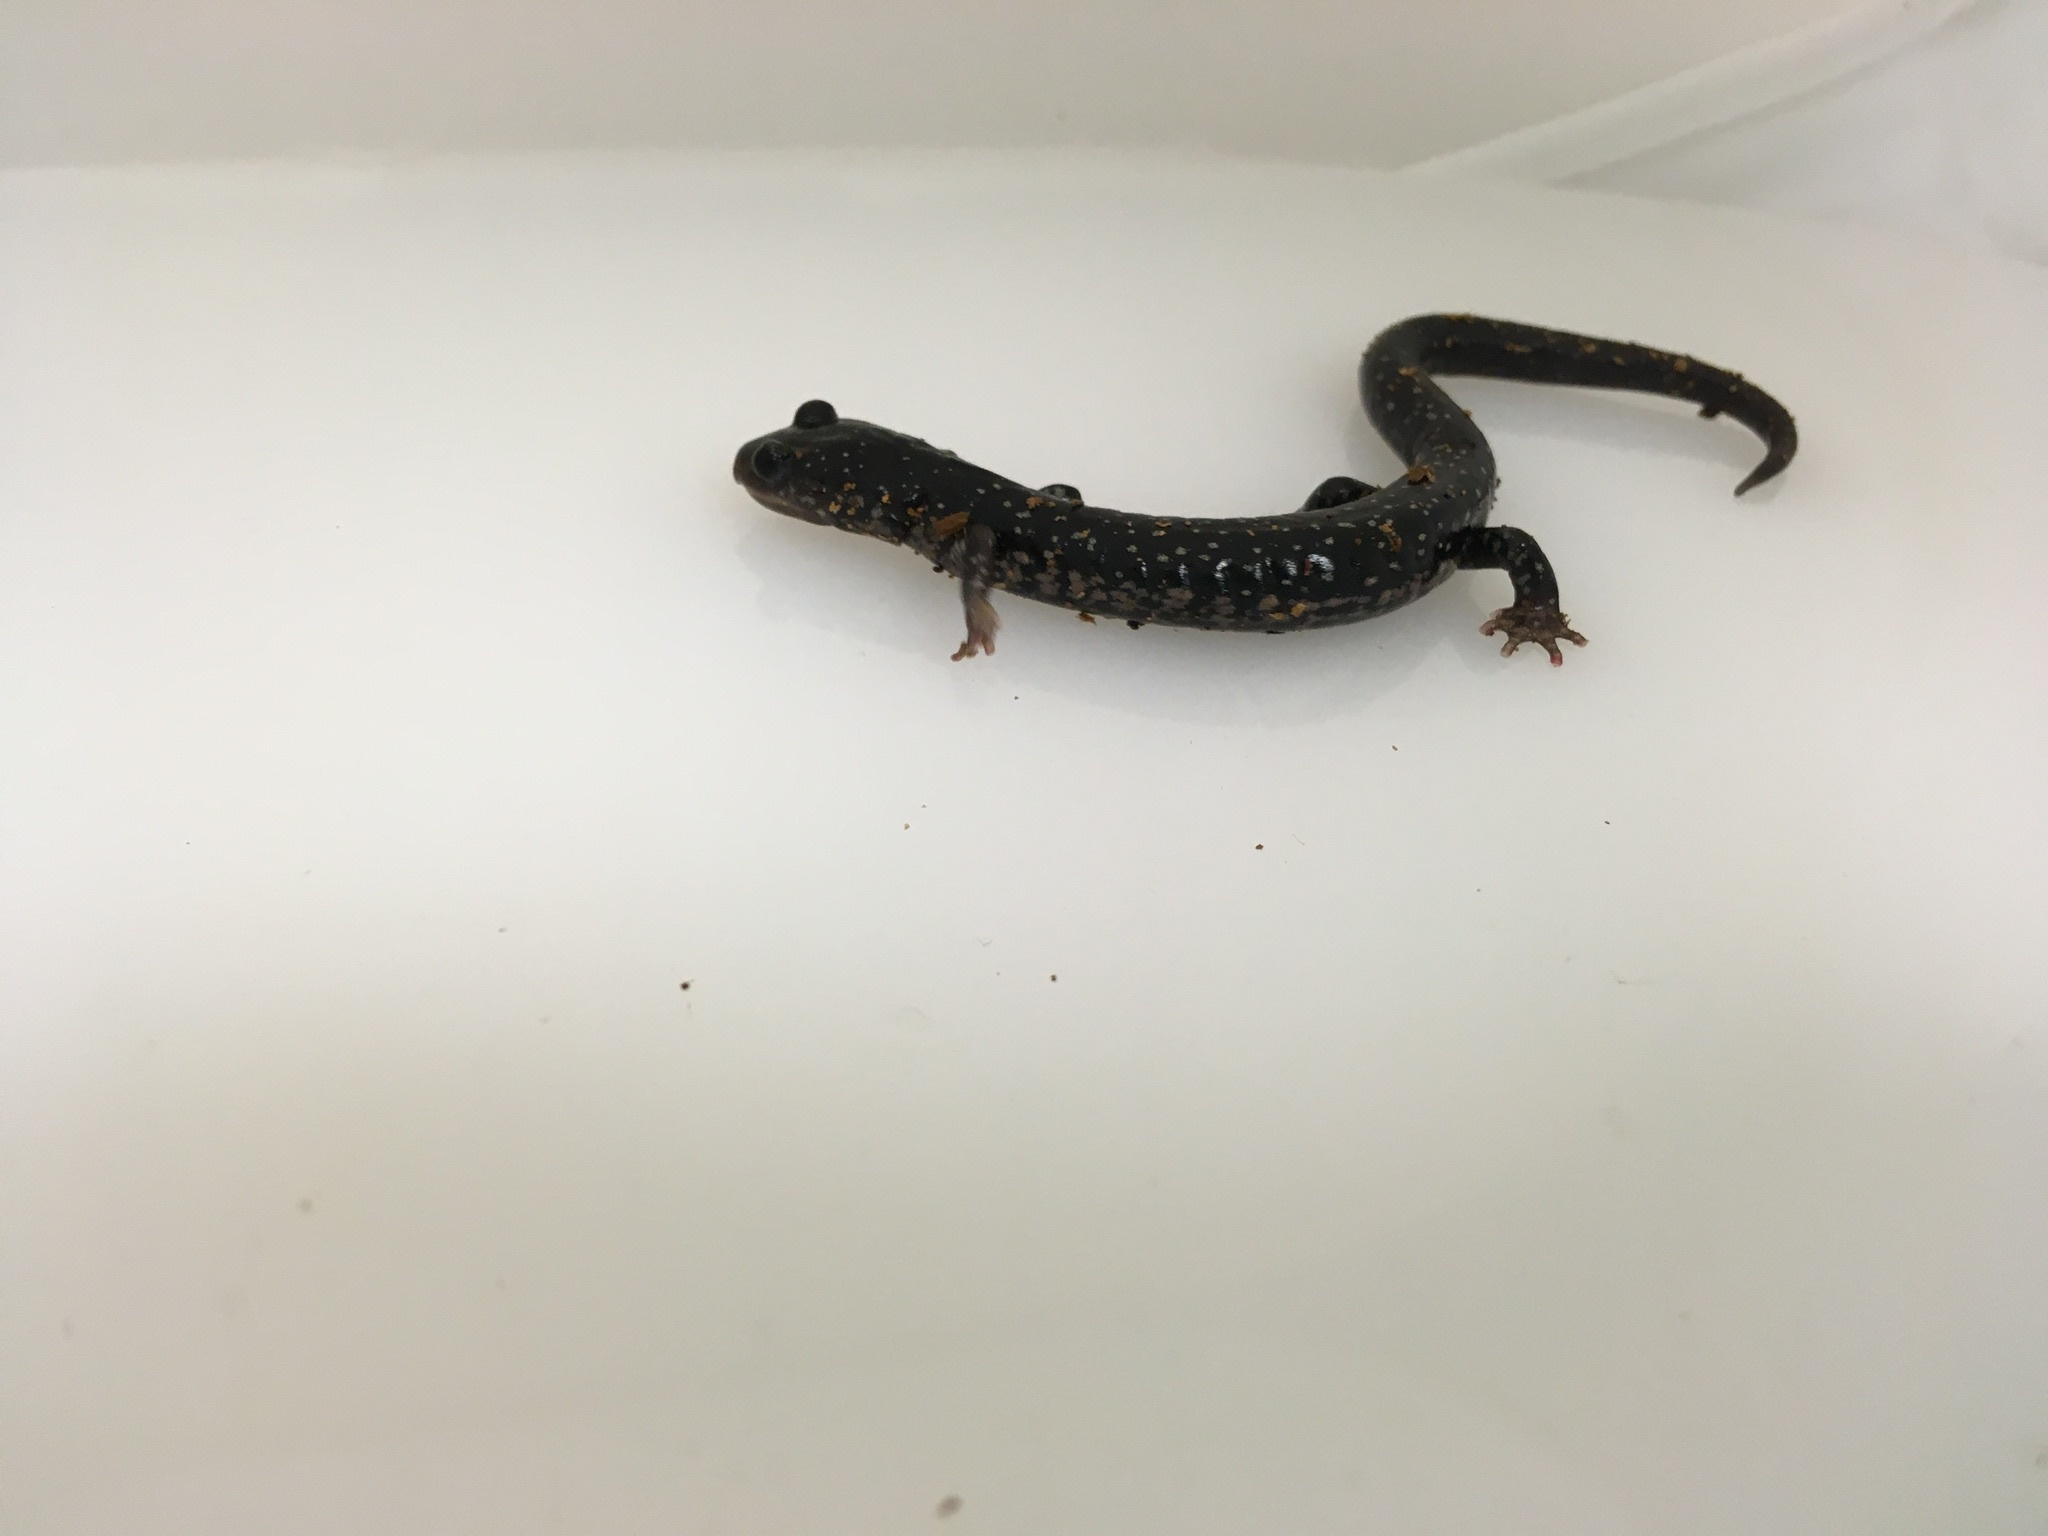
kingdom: Animalia
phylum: Chordata
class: Amphibia
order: Caudata
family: Plethodontidae
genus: Plethodon
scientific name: Plethodon albagula
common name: Western slimy salamander
